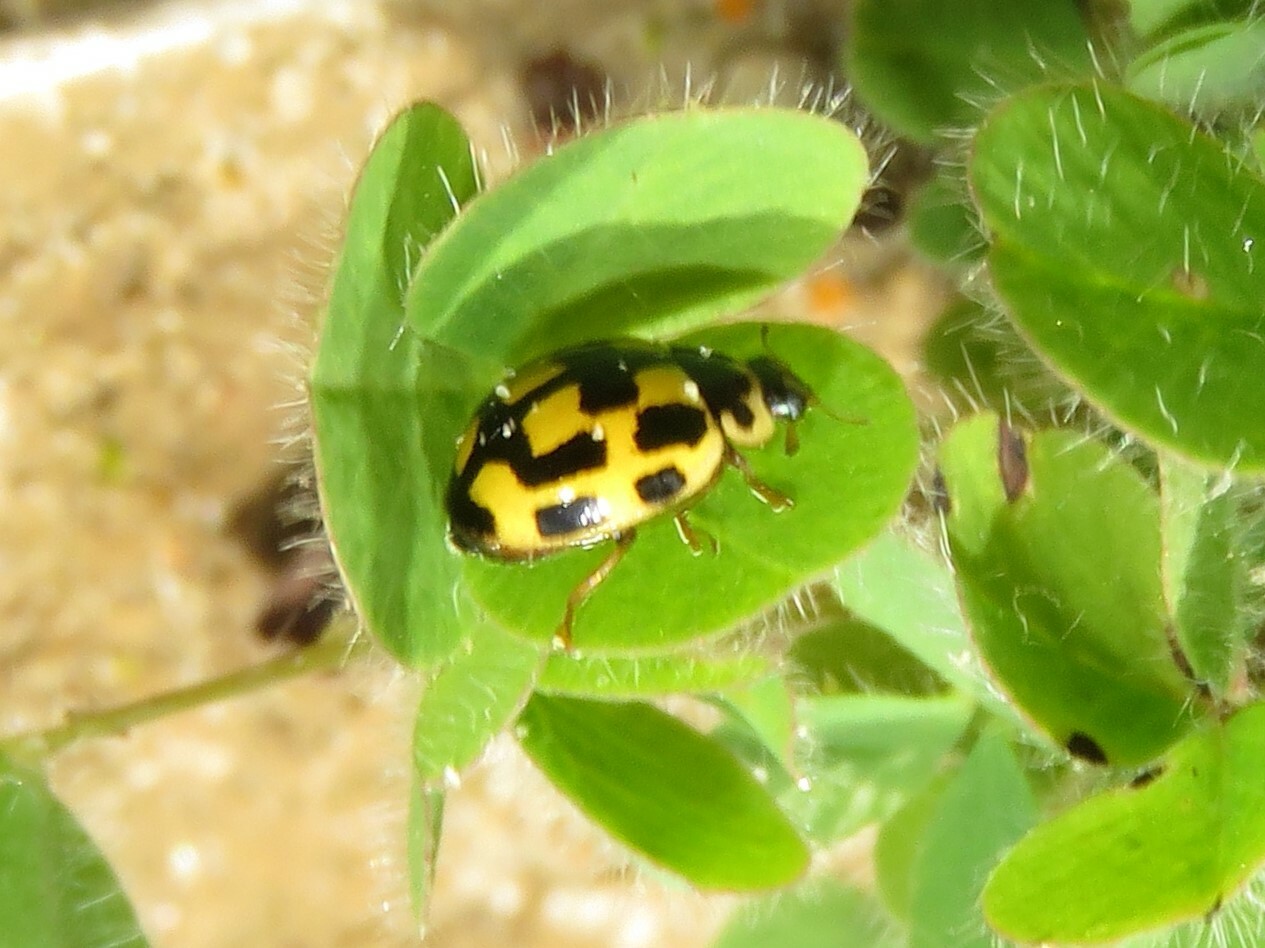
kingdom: Animalia
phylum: Arthropoda
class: Insecta
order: Coleoptera
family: Coccinellidae
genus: Propylaea
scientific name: Propylaea quatuordecimpunctata
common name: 14-spotted ladybird beetle
